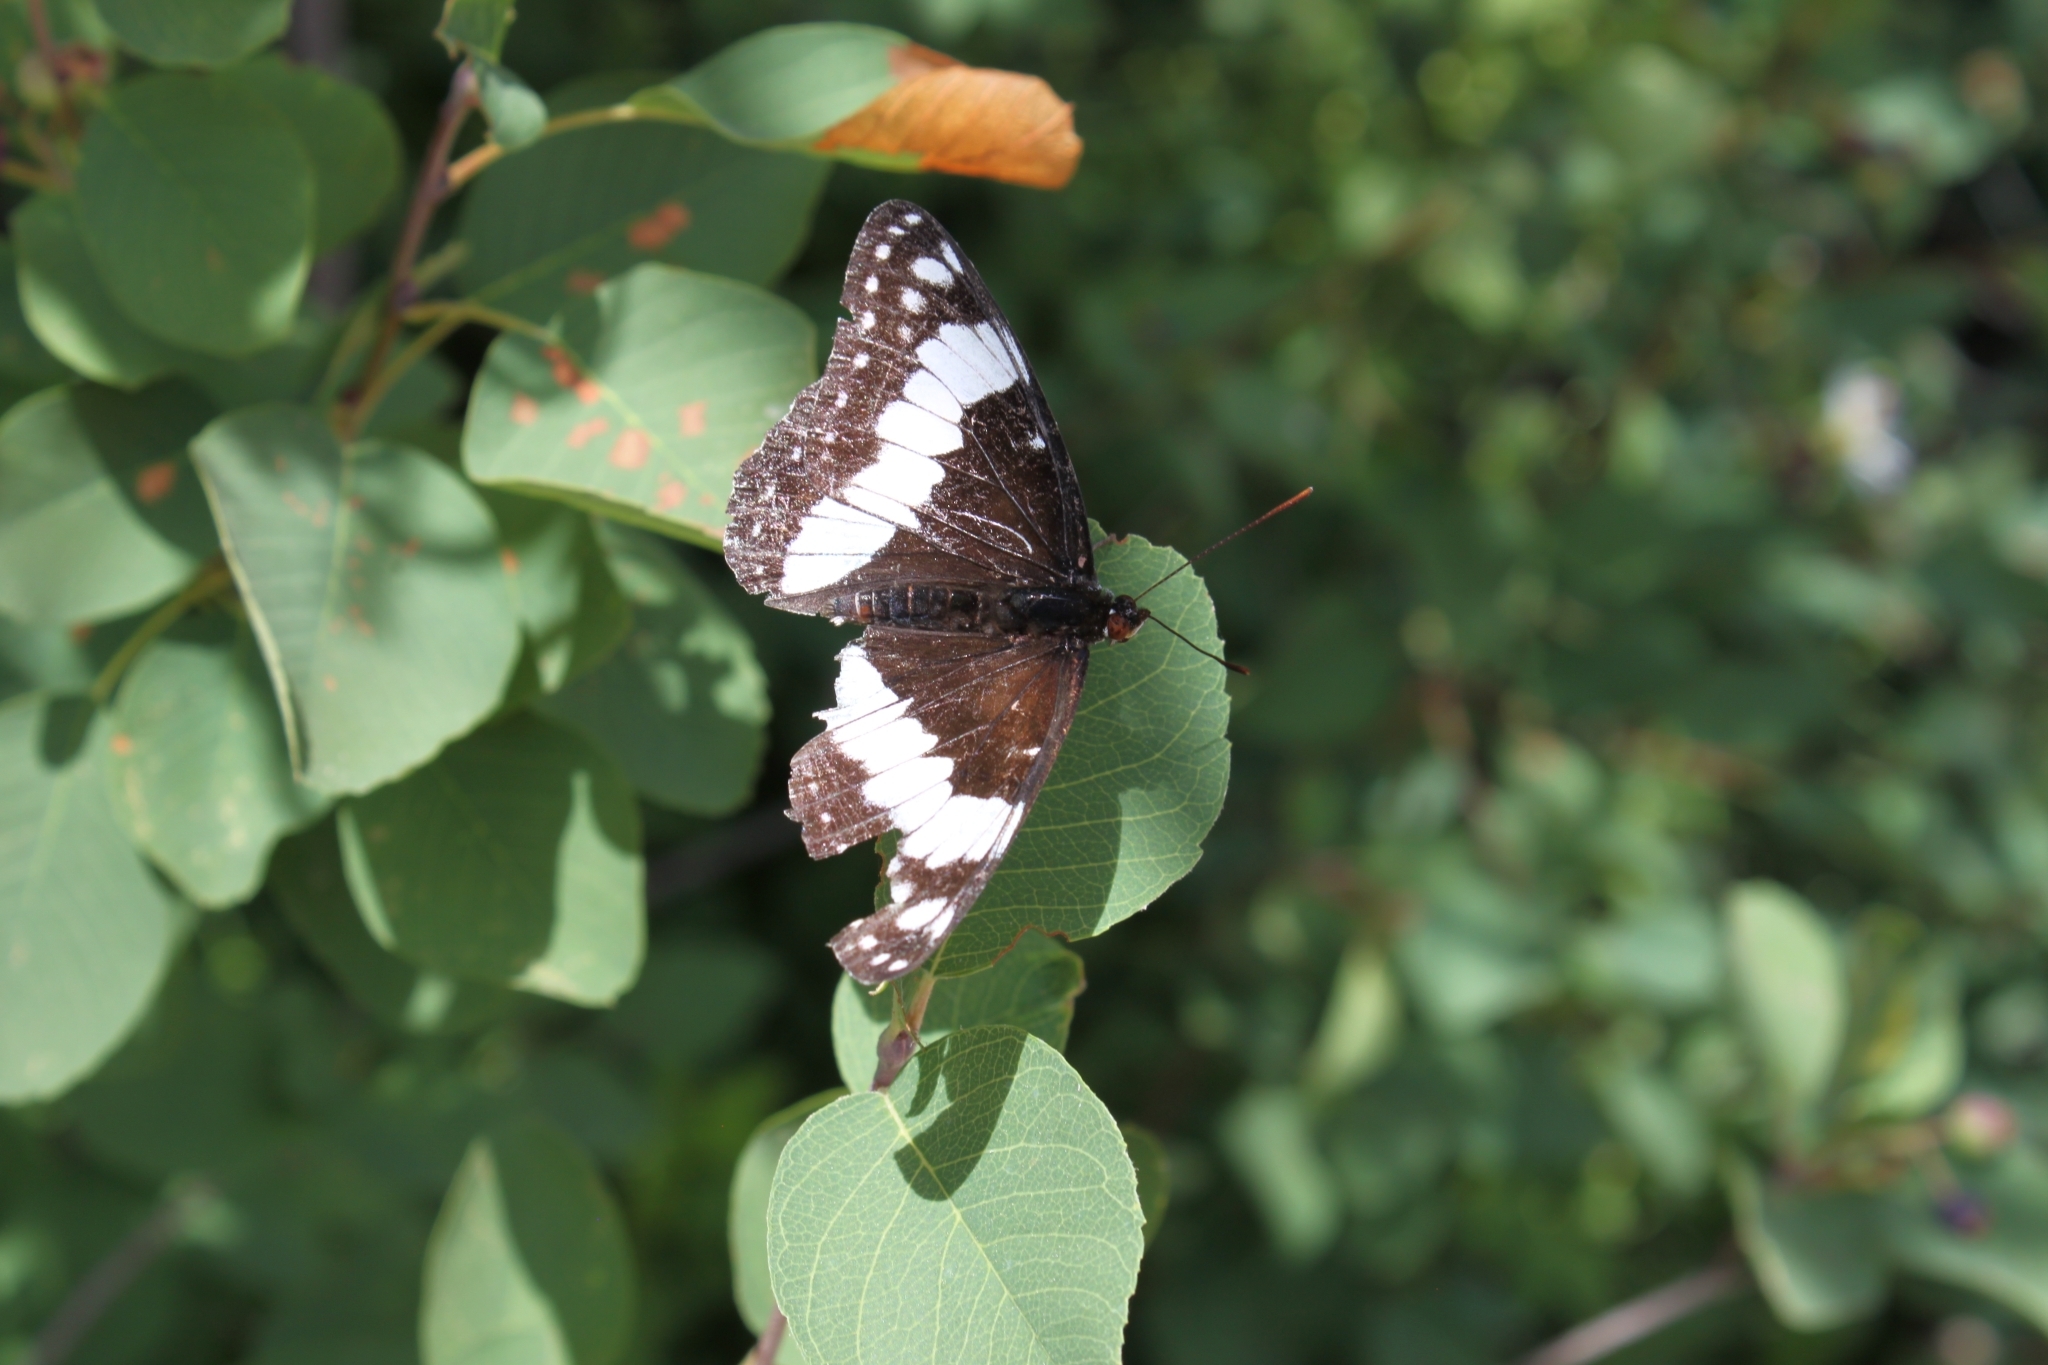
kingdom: Animalia
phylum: Arthropoda
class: Insecta
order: Lepidoptera
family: Nymphalidae
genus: Limenitis
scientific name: Limenitis weidemeyerii
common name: Weidemeyer's admiral
